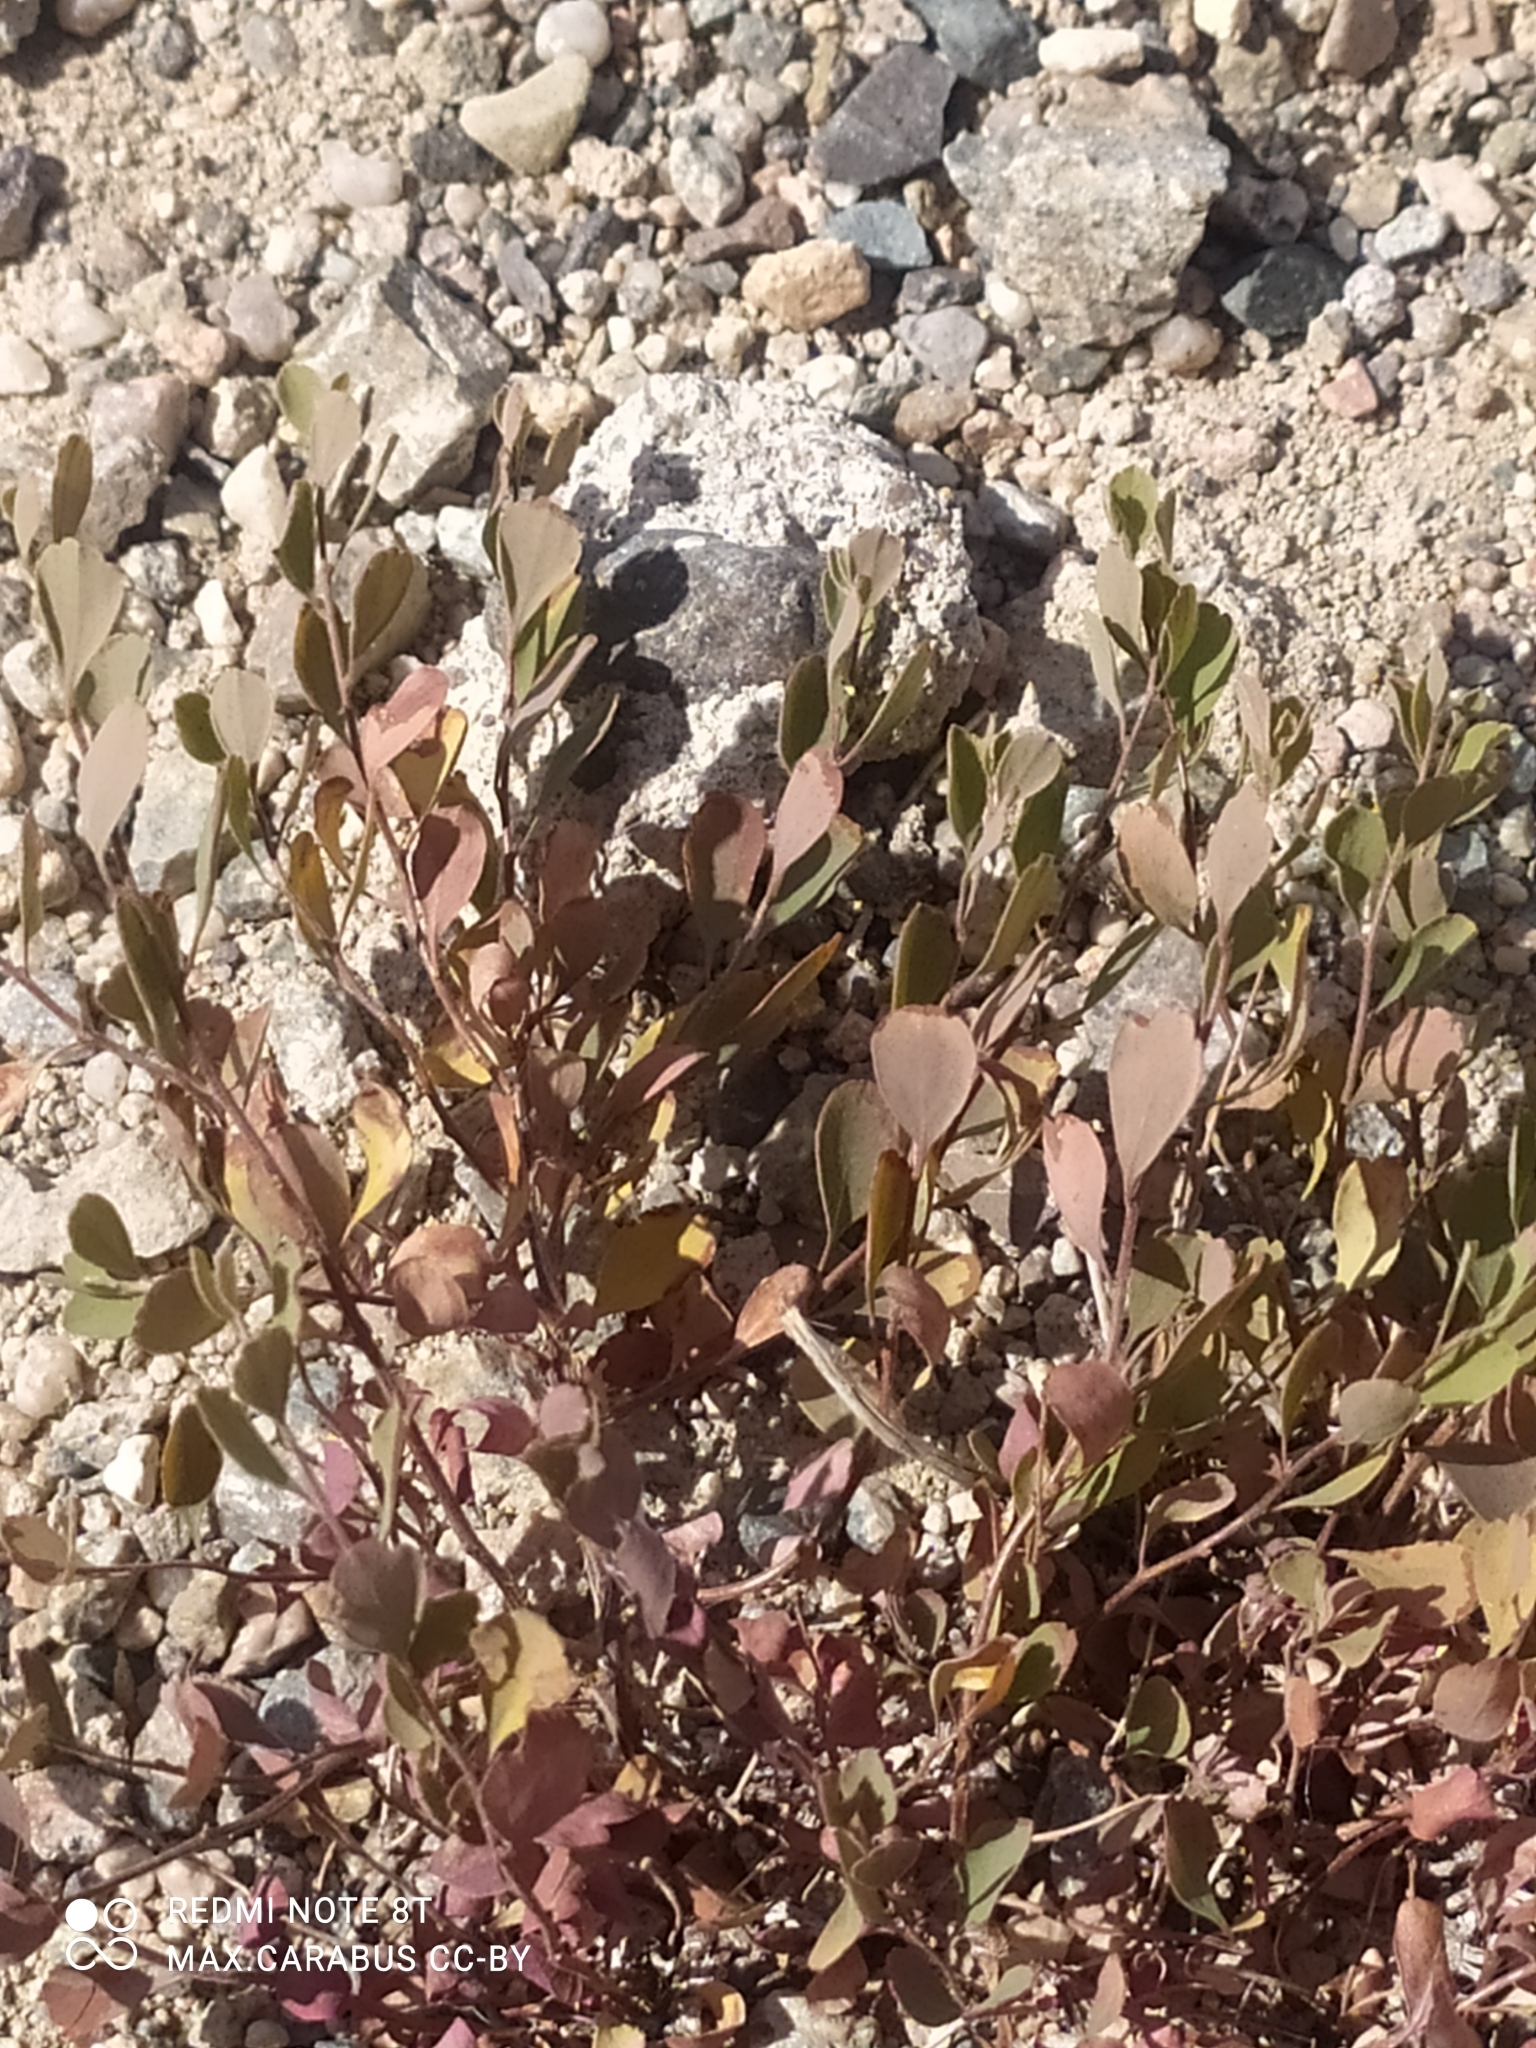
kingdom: Plantae
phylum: Tracheophyta
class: Magnoliopsida
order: Rosales
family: Rosaceae
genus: Spiraea
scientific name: Spiraea trilobata
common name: Asian meadowsweet
